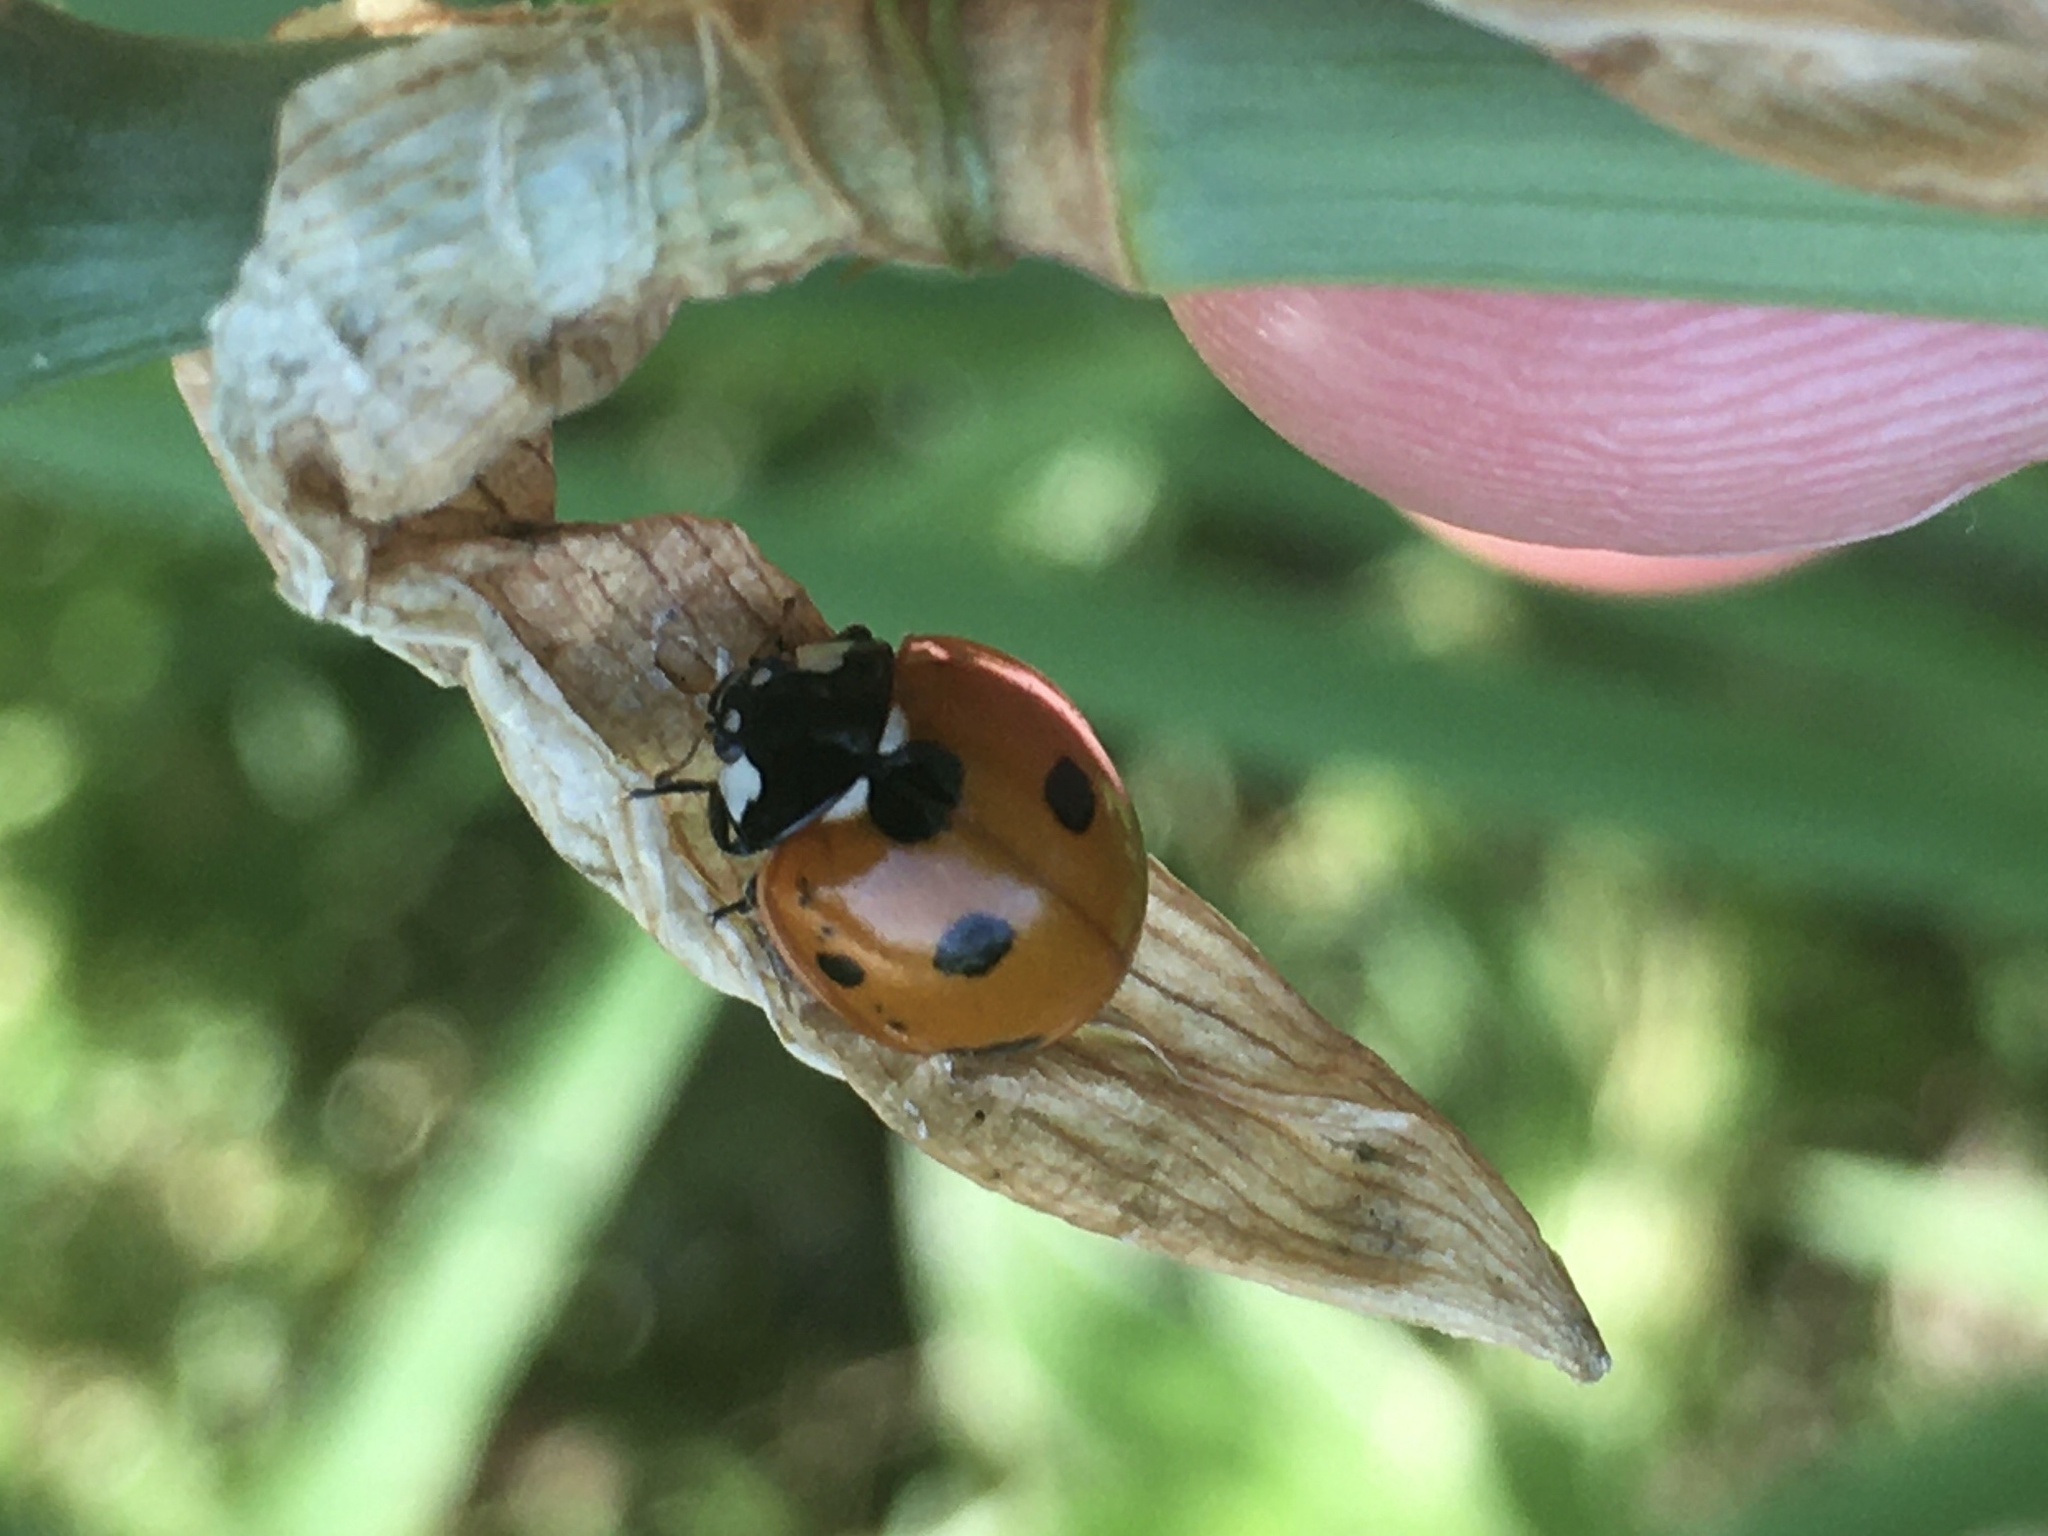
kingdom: Animalia
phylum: Arthropoda
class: Insecta
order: Coleoptera
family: Coccinellidae
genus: Coccinella
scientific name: Coccinella septempunctata
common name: Sevenspotted lady beetle
